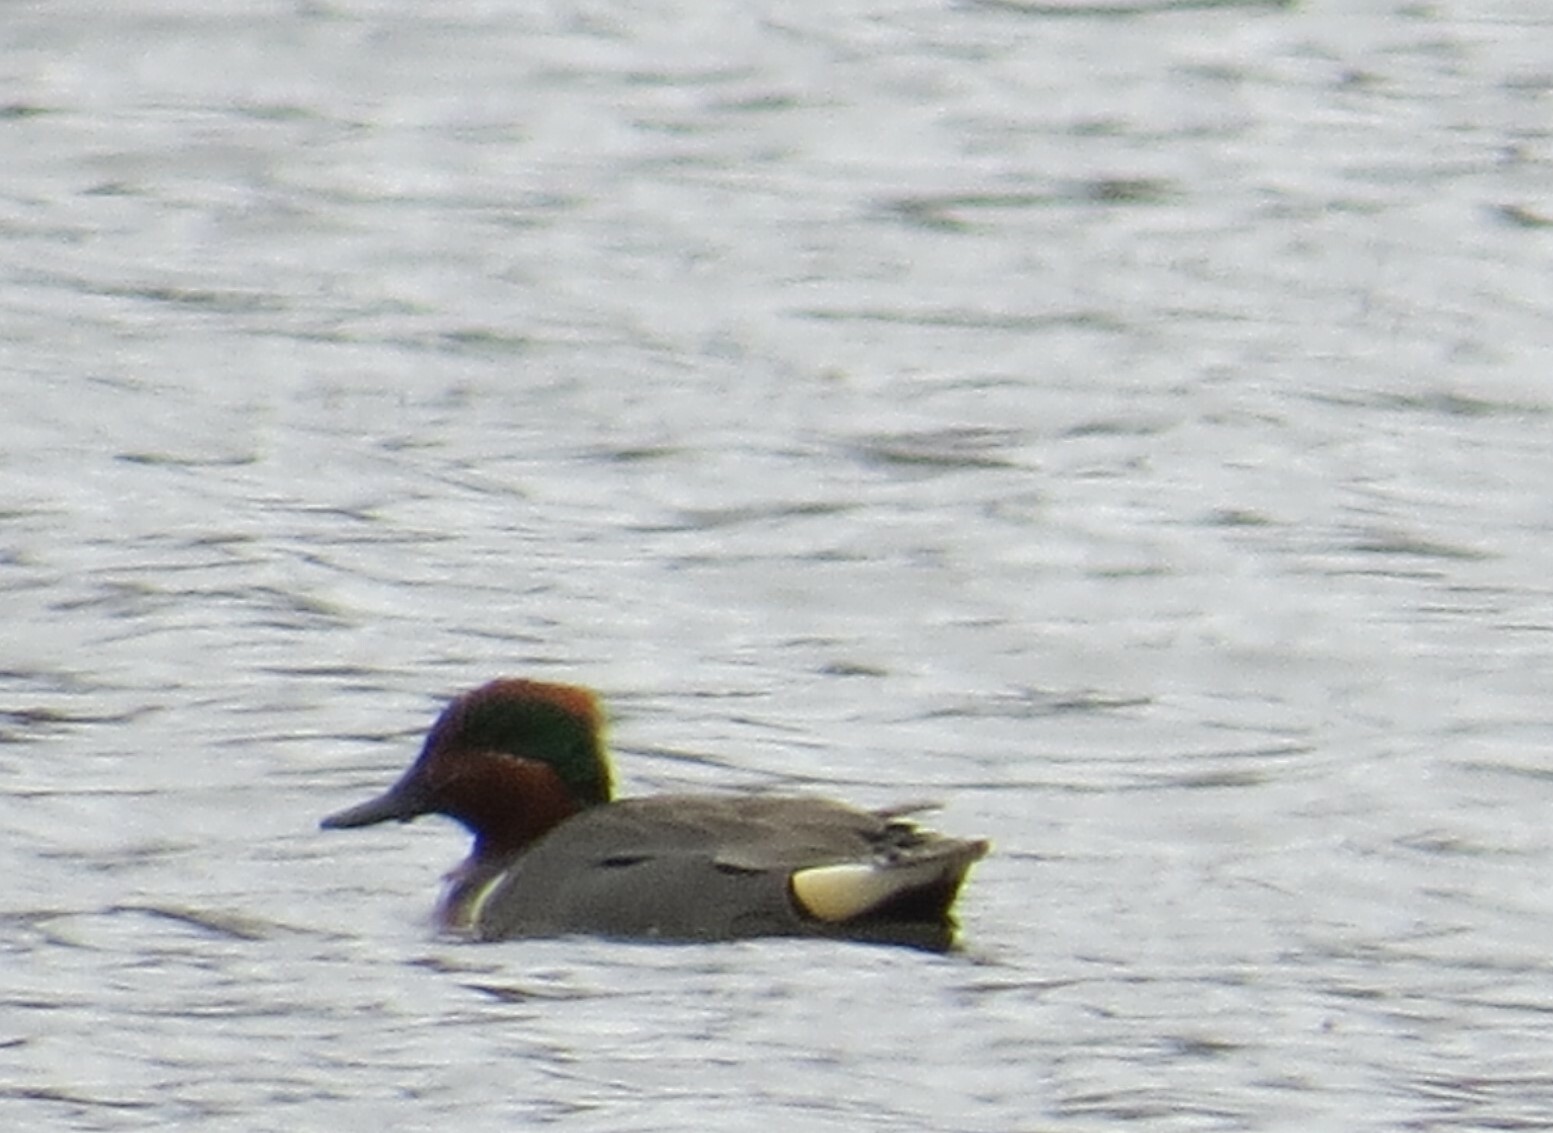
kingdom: Animalia
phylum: Chordata
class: Aves
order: Anseriformes
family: Anatidae
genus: Anas
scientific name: Anas crecca
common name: Eurasian teal
